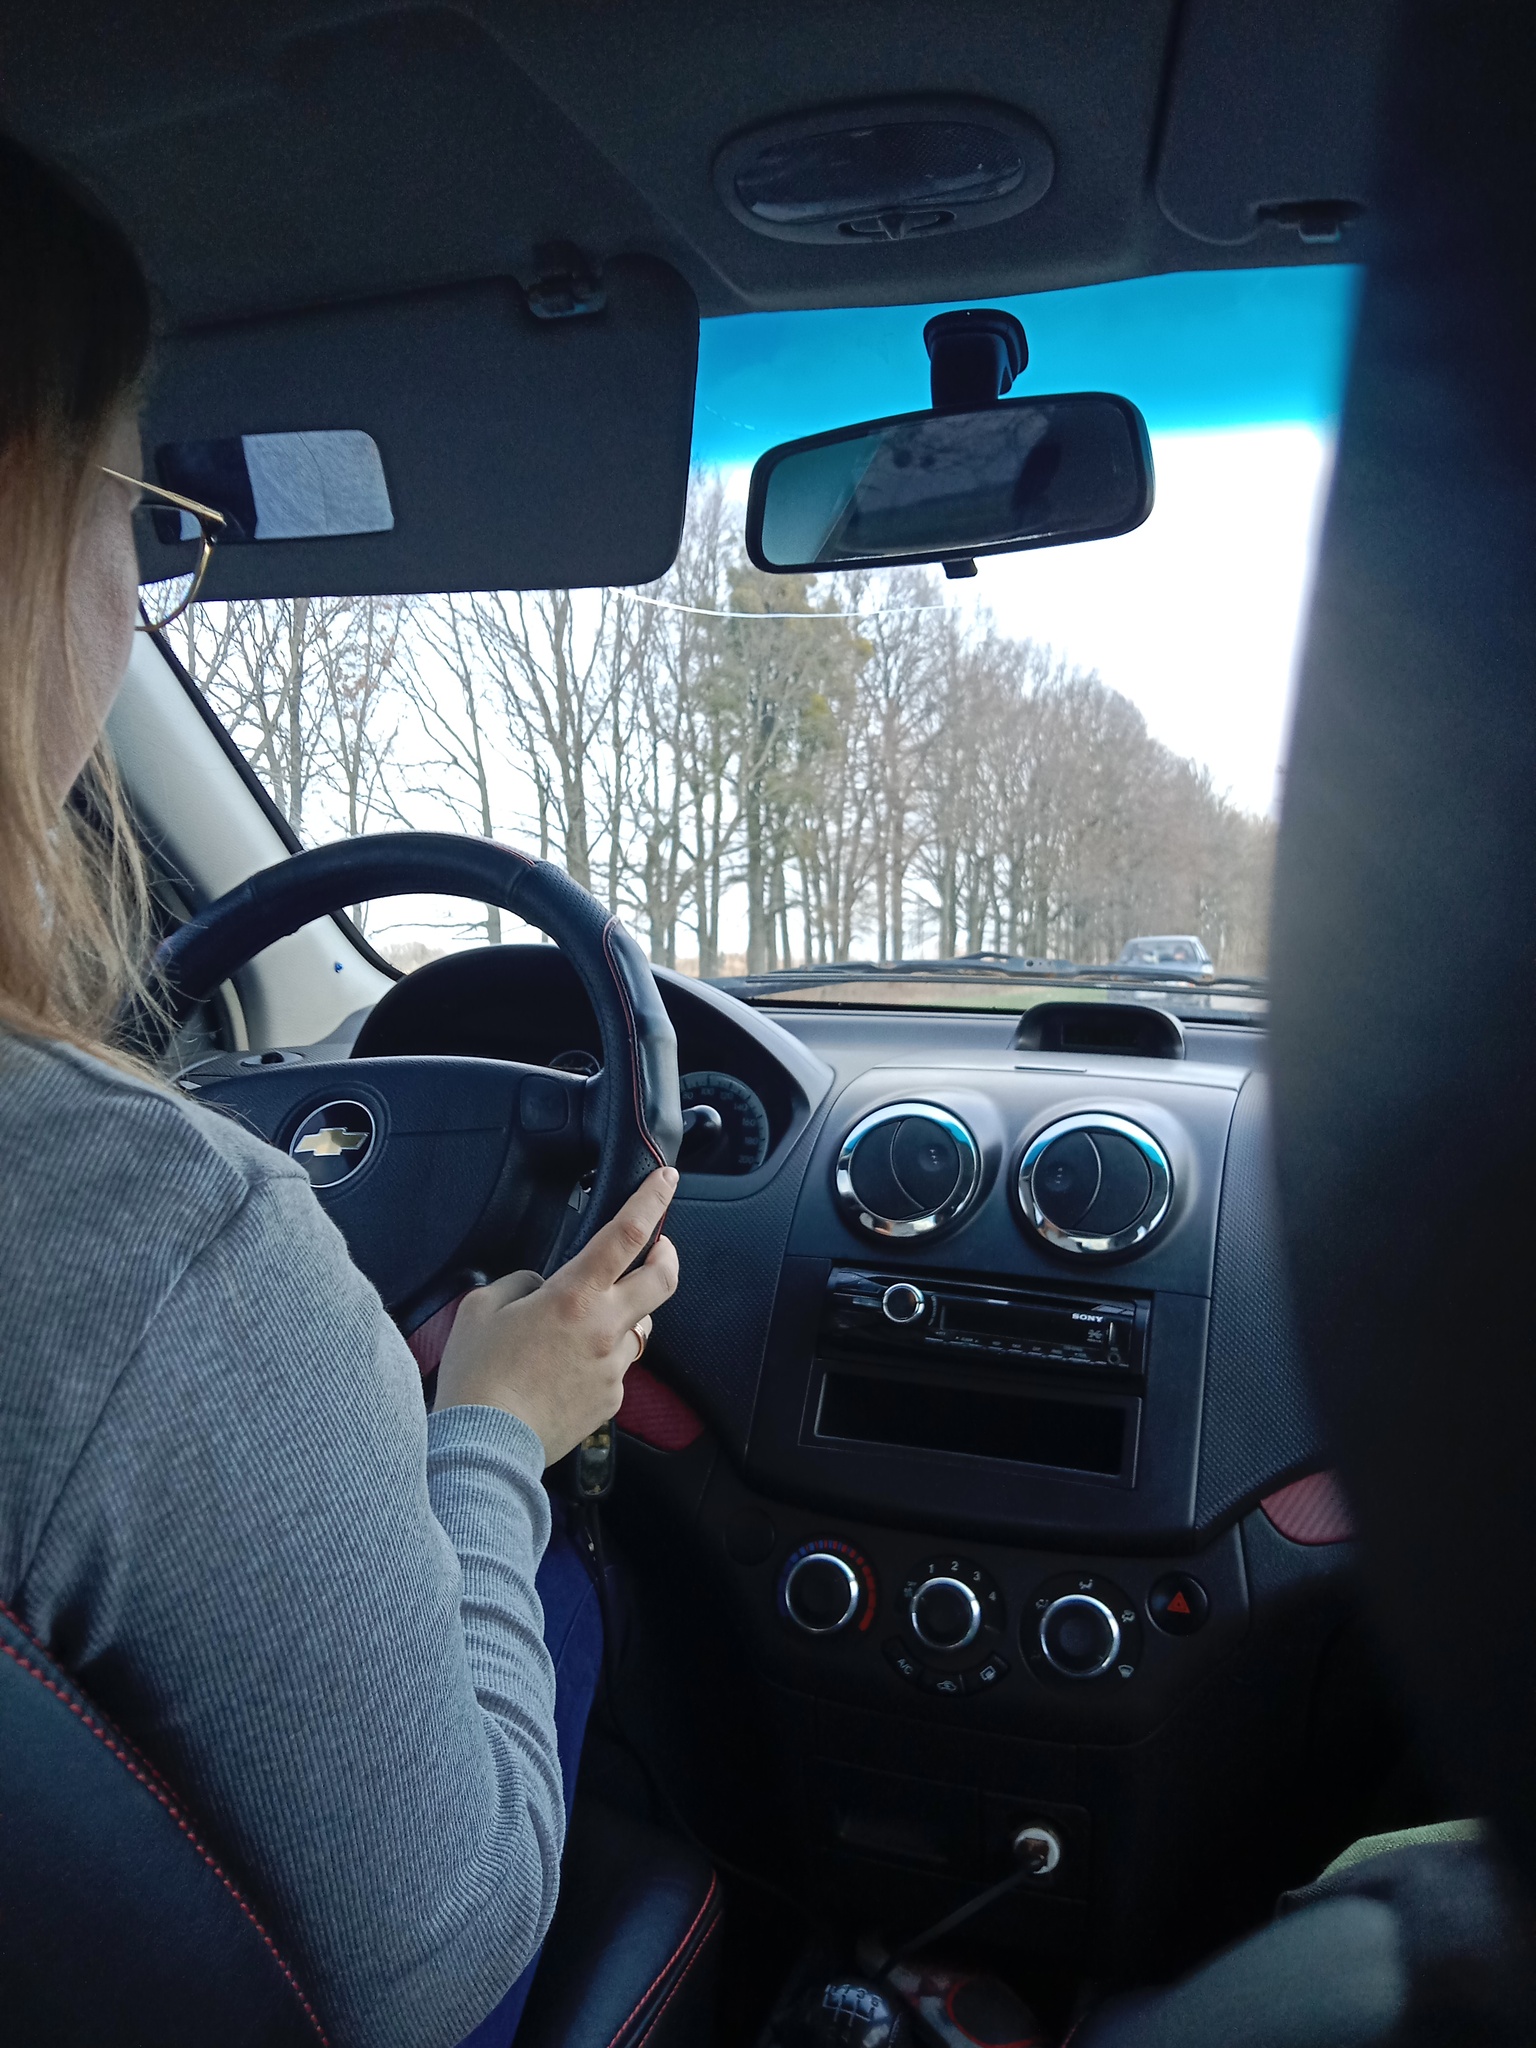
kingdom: Plantae
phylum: Tracheophyta
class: Magnoliopsida
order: Santalales
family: Viscaceae
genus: Viscum
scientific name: Viscum album
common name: Mistletoe
